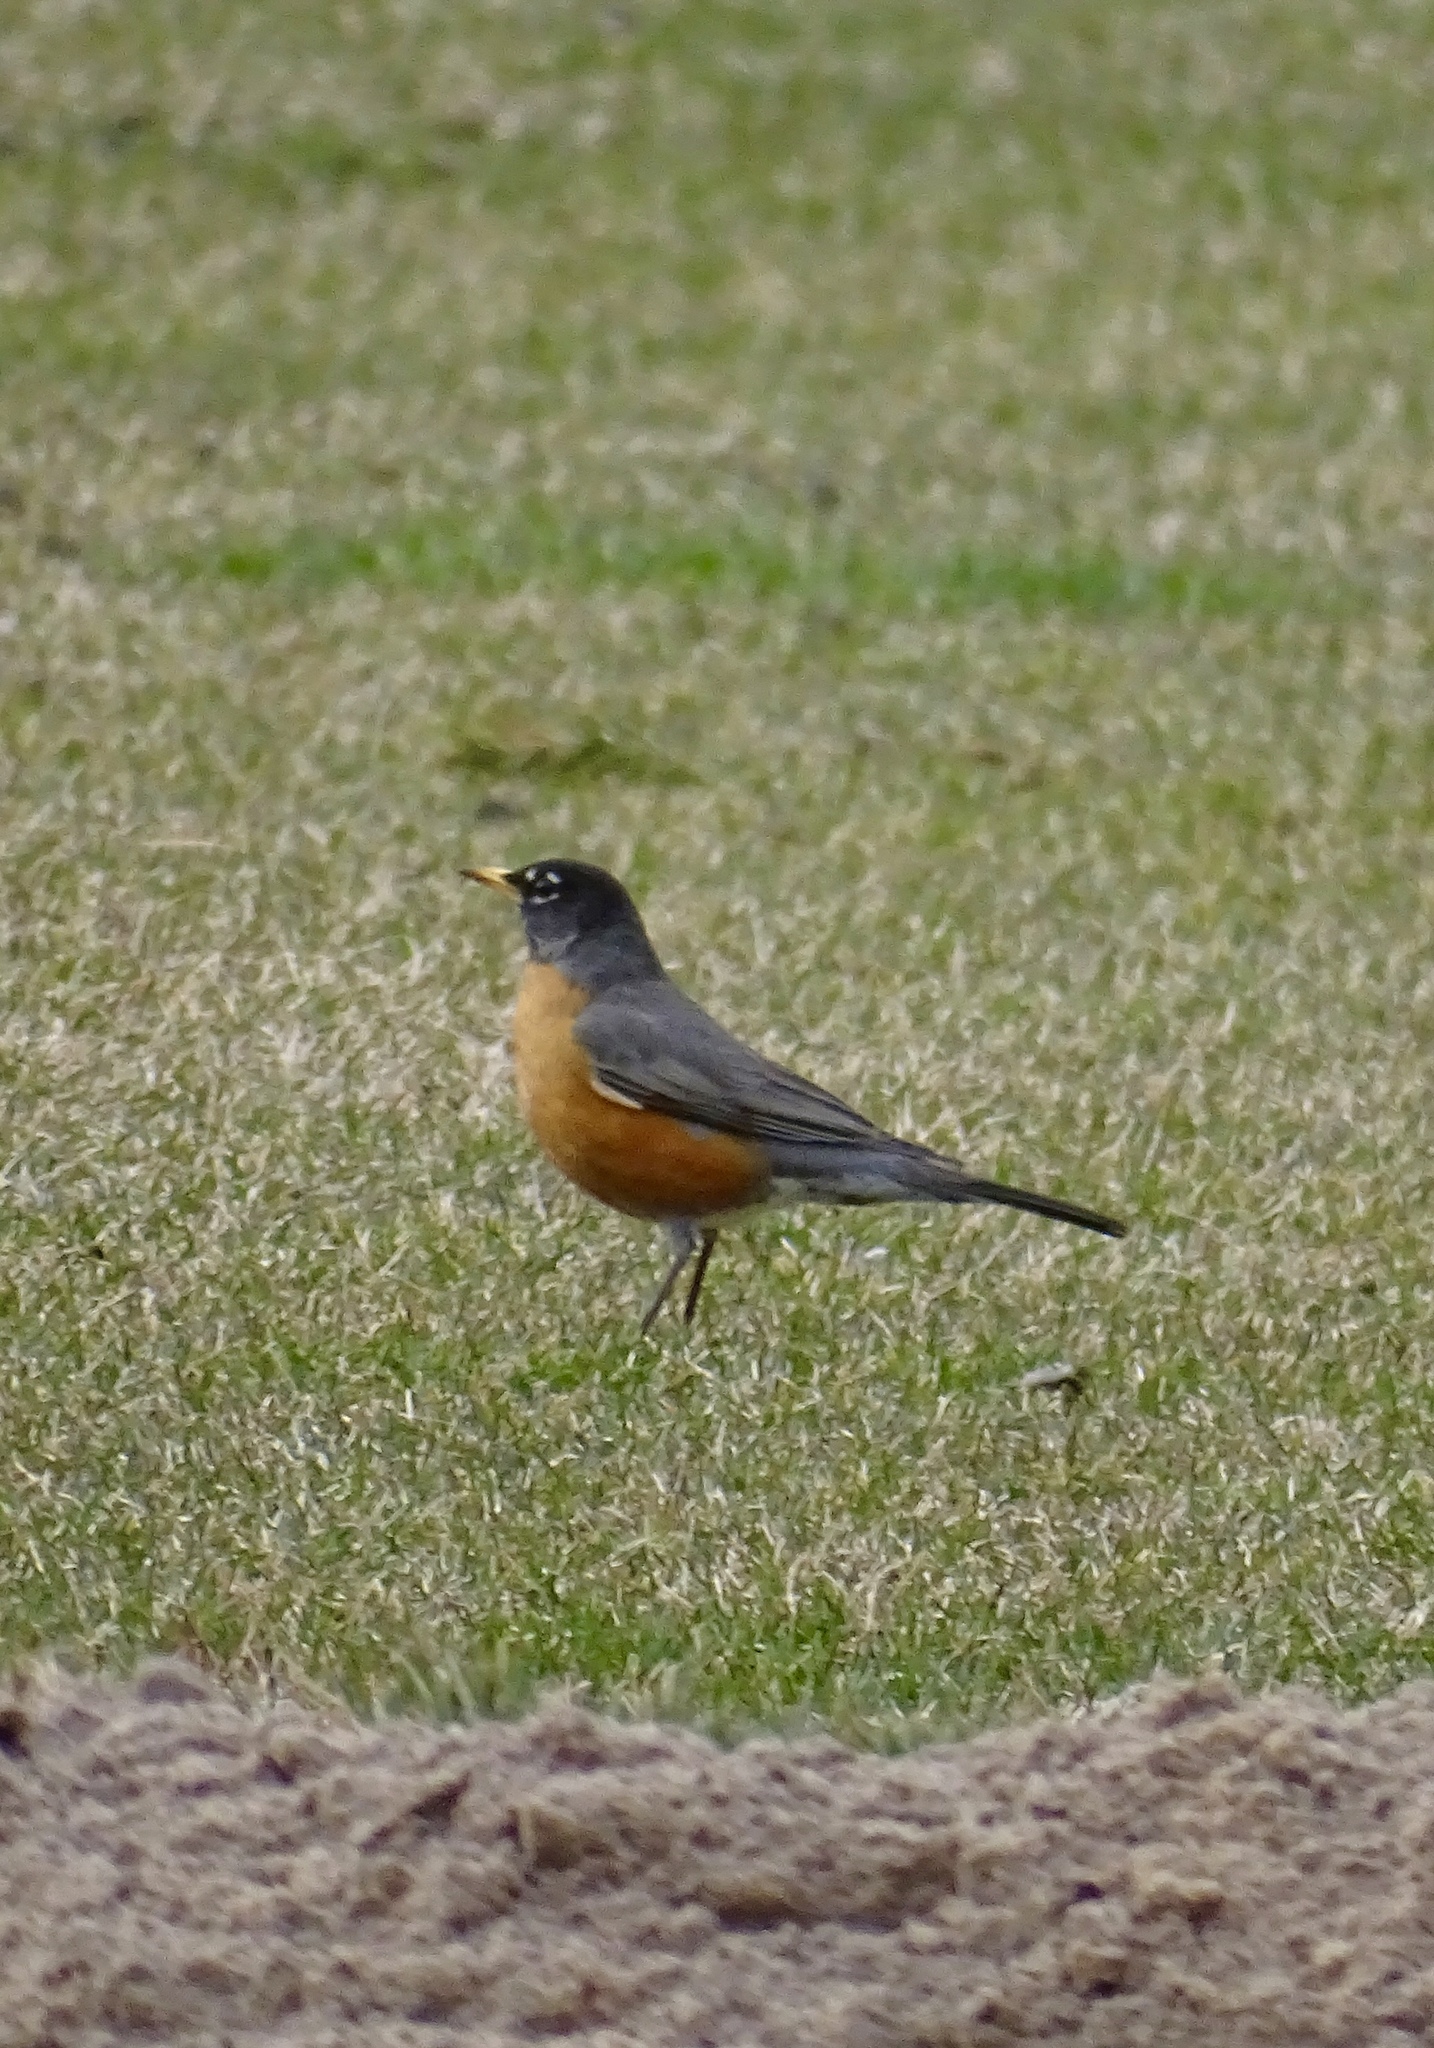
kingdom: Animalia
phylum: Chordata
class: Aves
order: Passeriformes
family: Turdidae
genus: Turdus
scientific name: Turdus migratorius
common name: American robin
